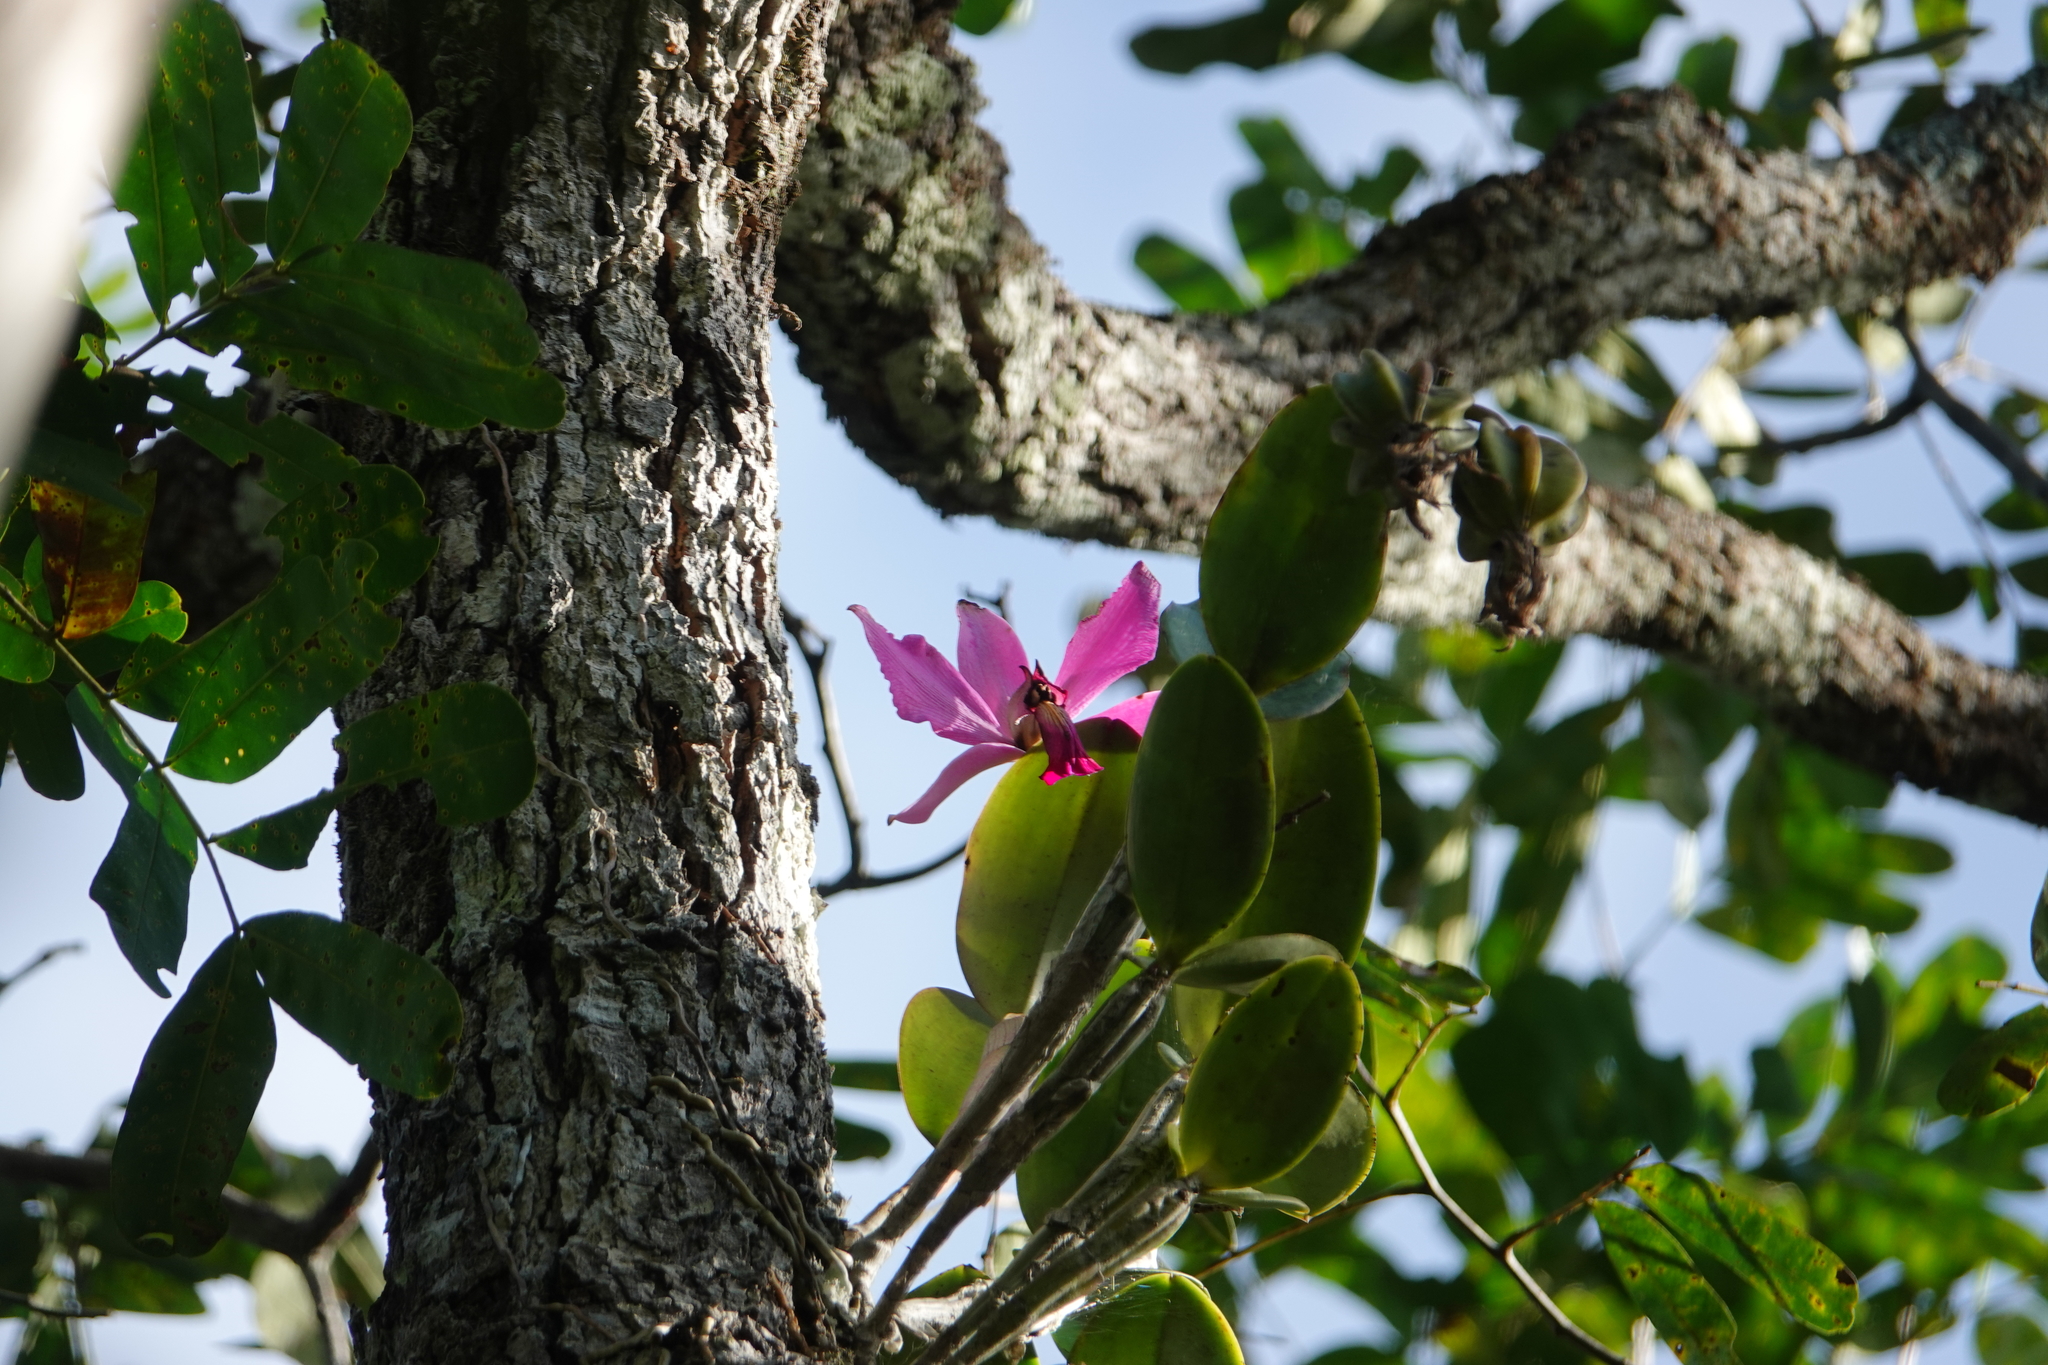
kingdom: Plantae
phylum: Tracheophyta
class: Liliopsida
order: Asparagales
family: Orchidaceae
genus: Cattleya
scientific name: Cattleya violacea
